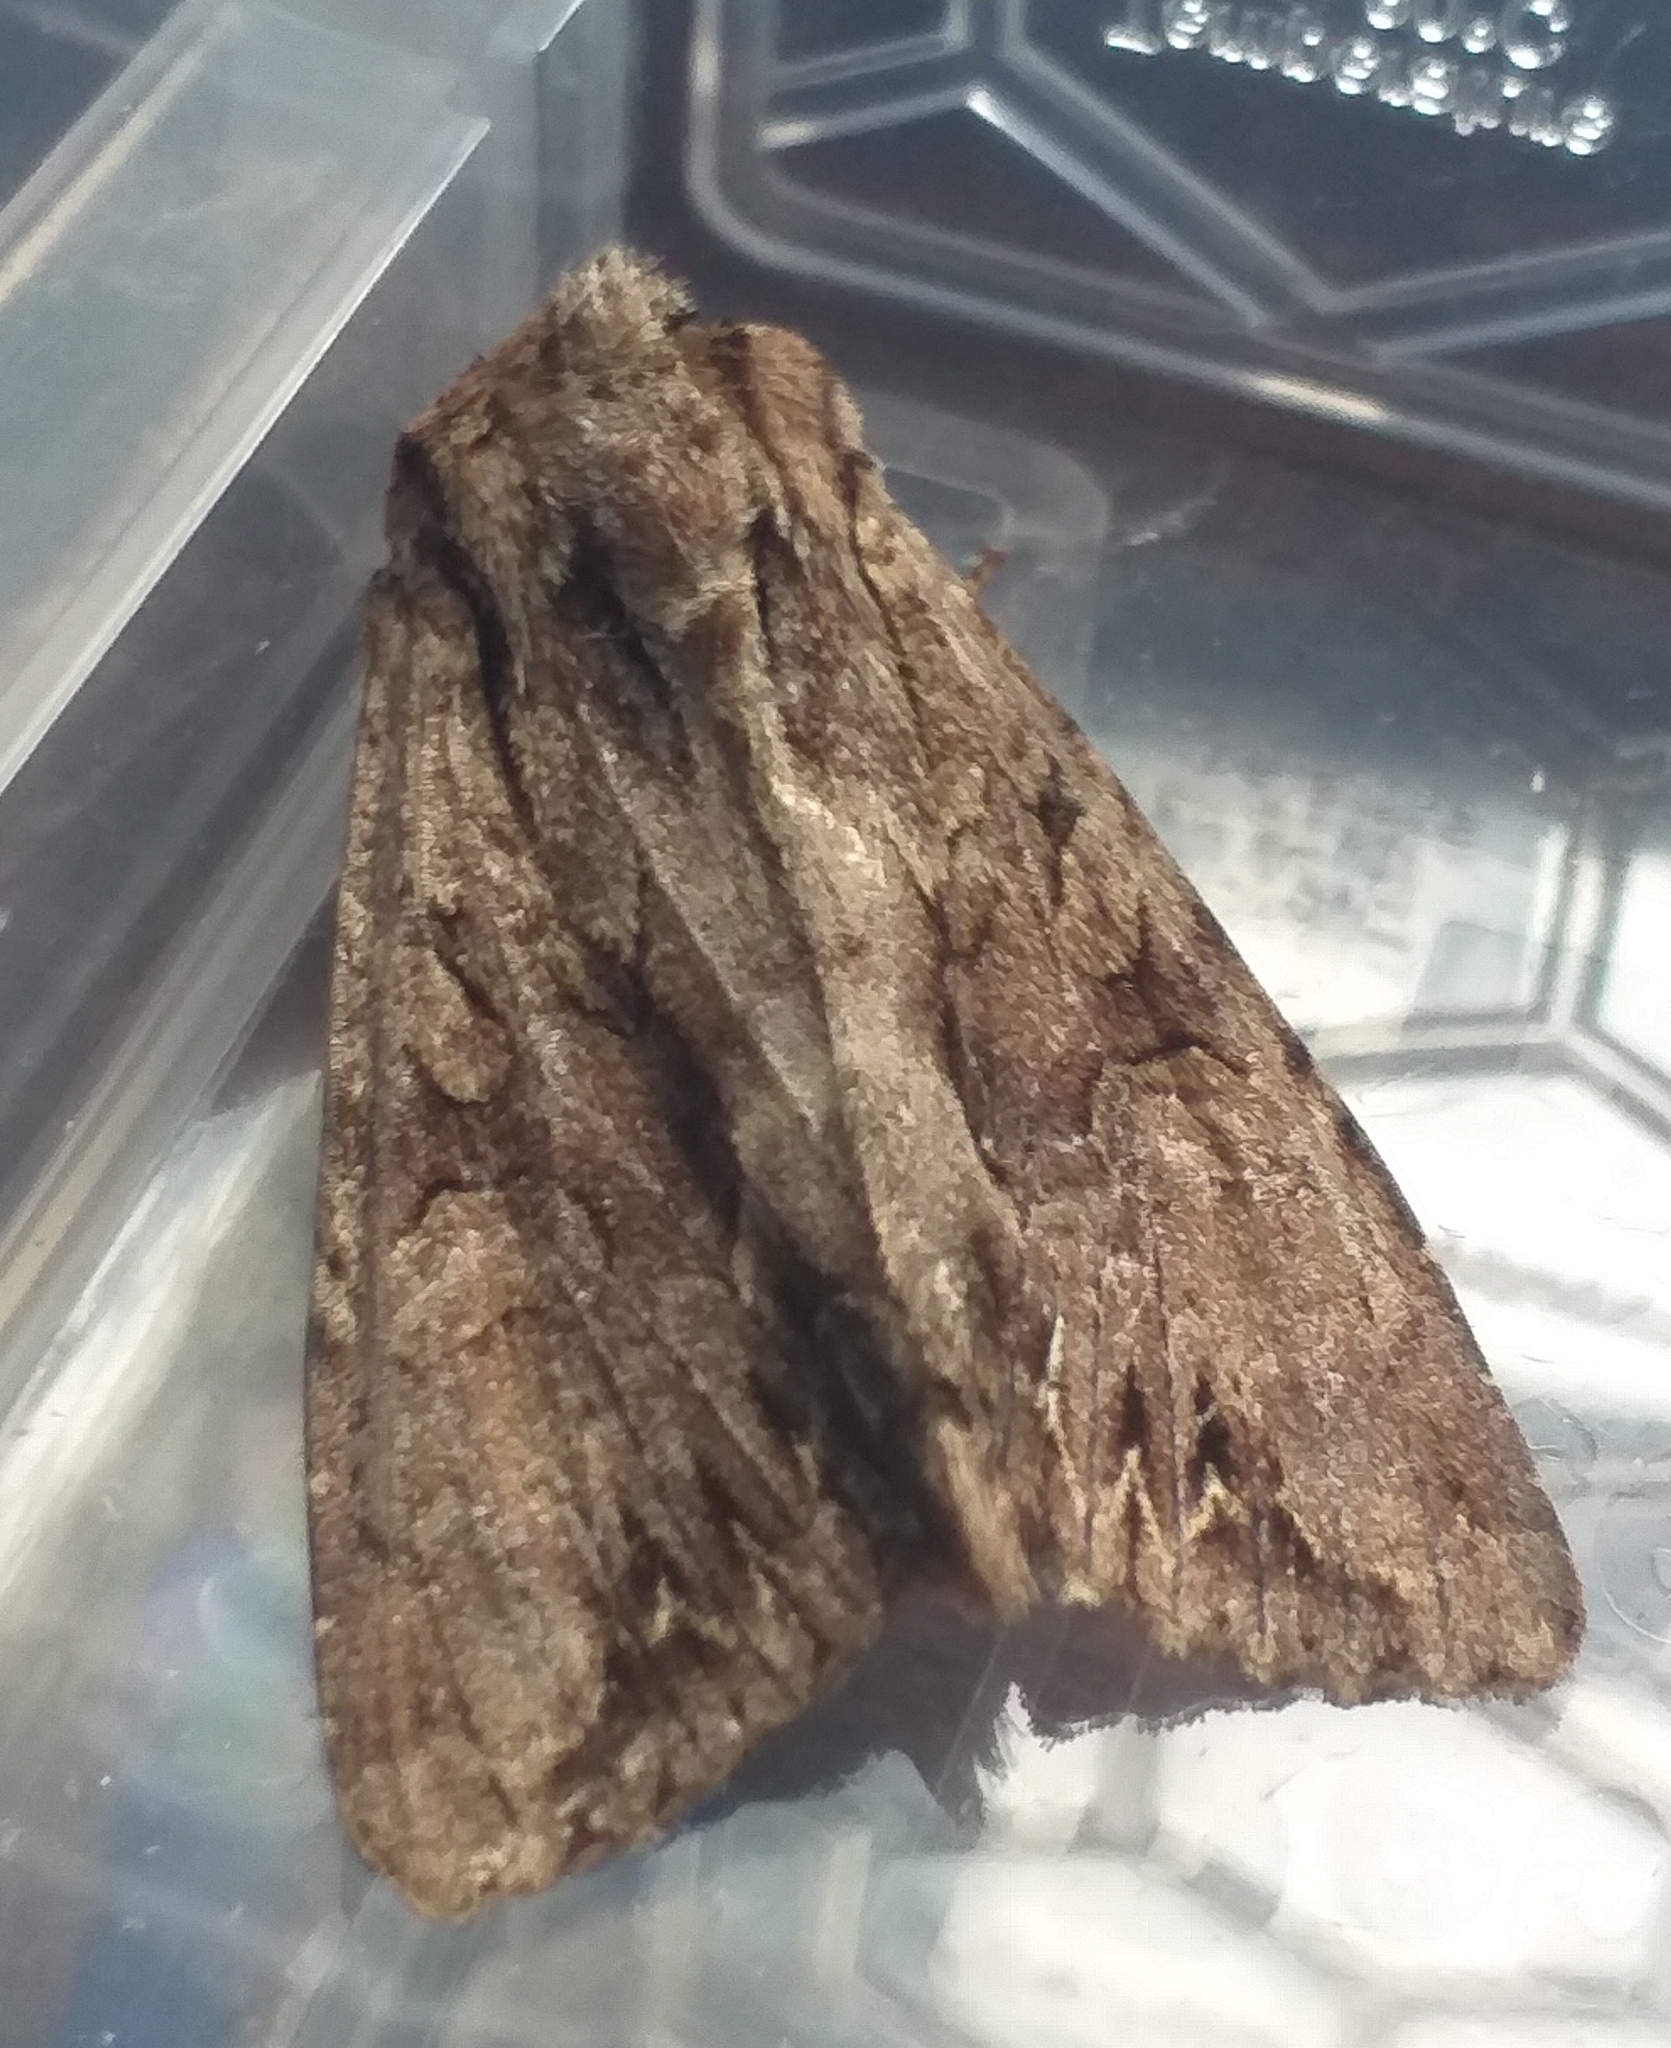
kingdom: Animalia
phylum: Arthropoda
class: Insecta
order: Lepidoptera
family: Noctuidae
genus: Apamea
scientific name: Apamea monoglypha
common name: Dark arches
